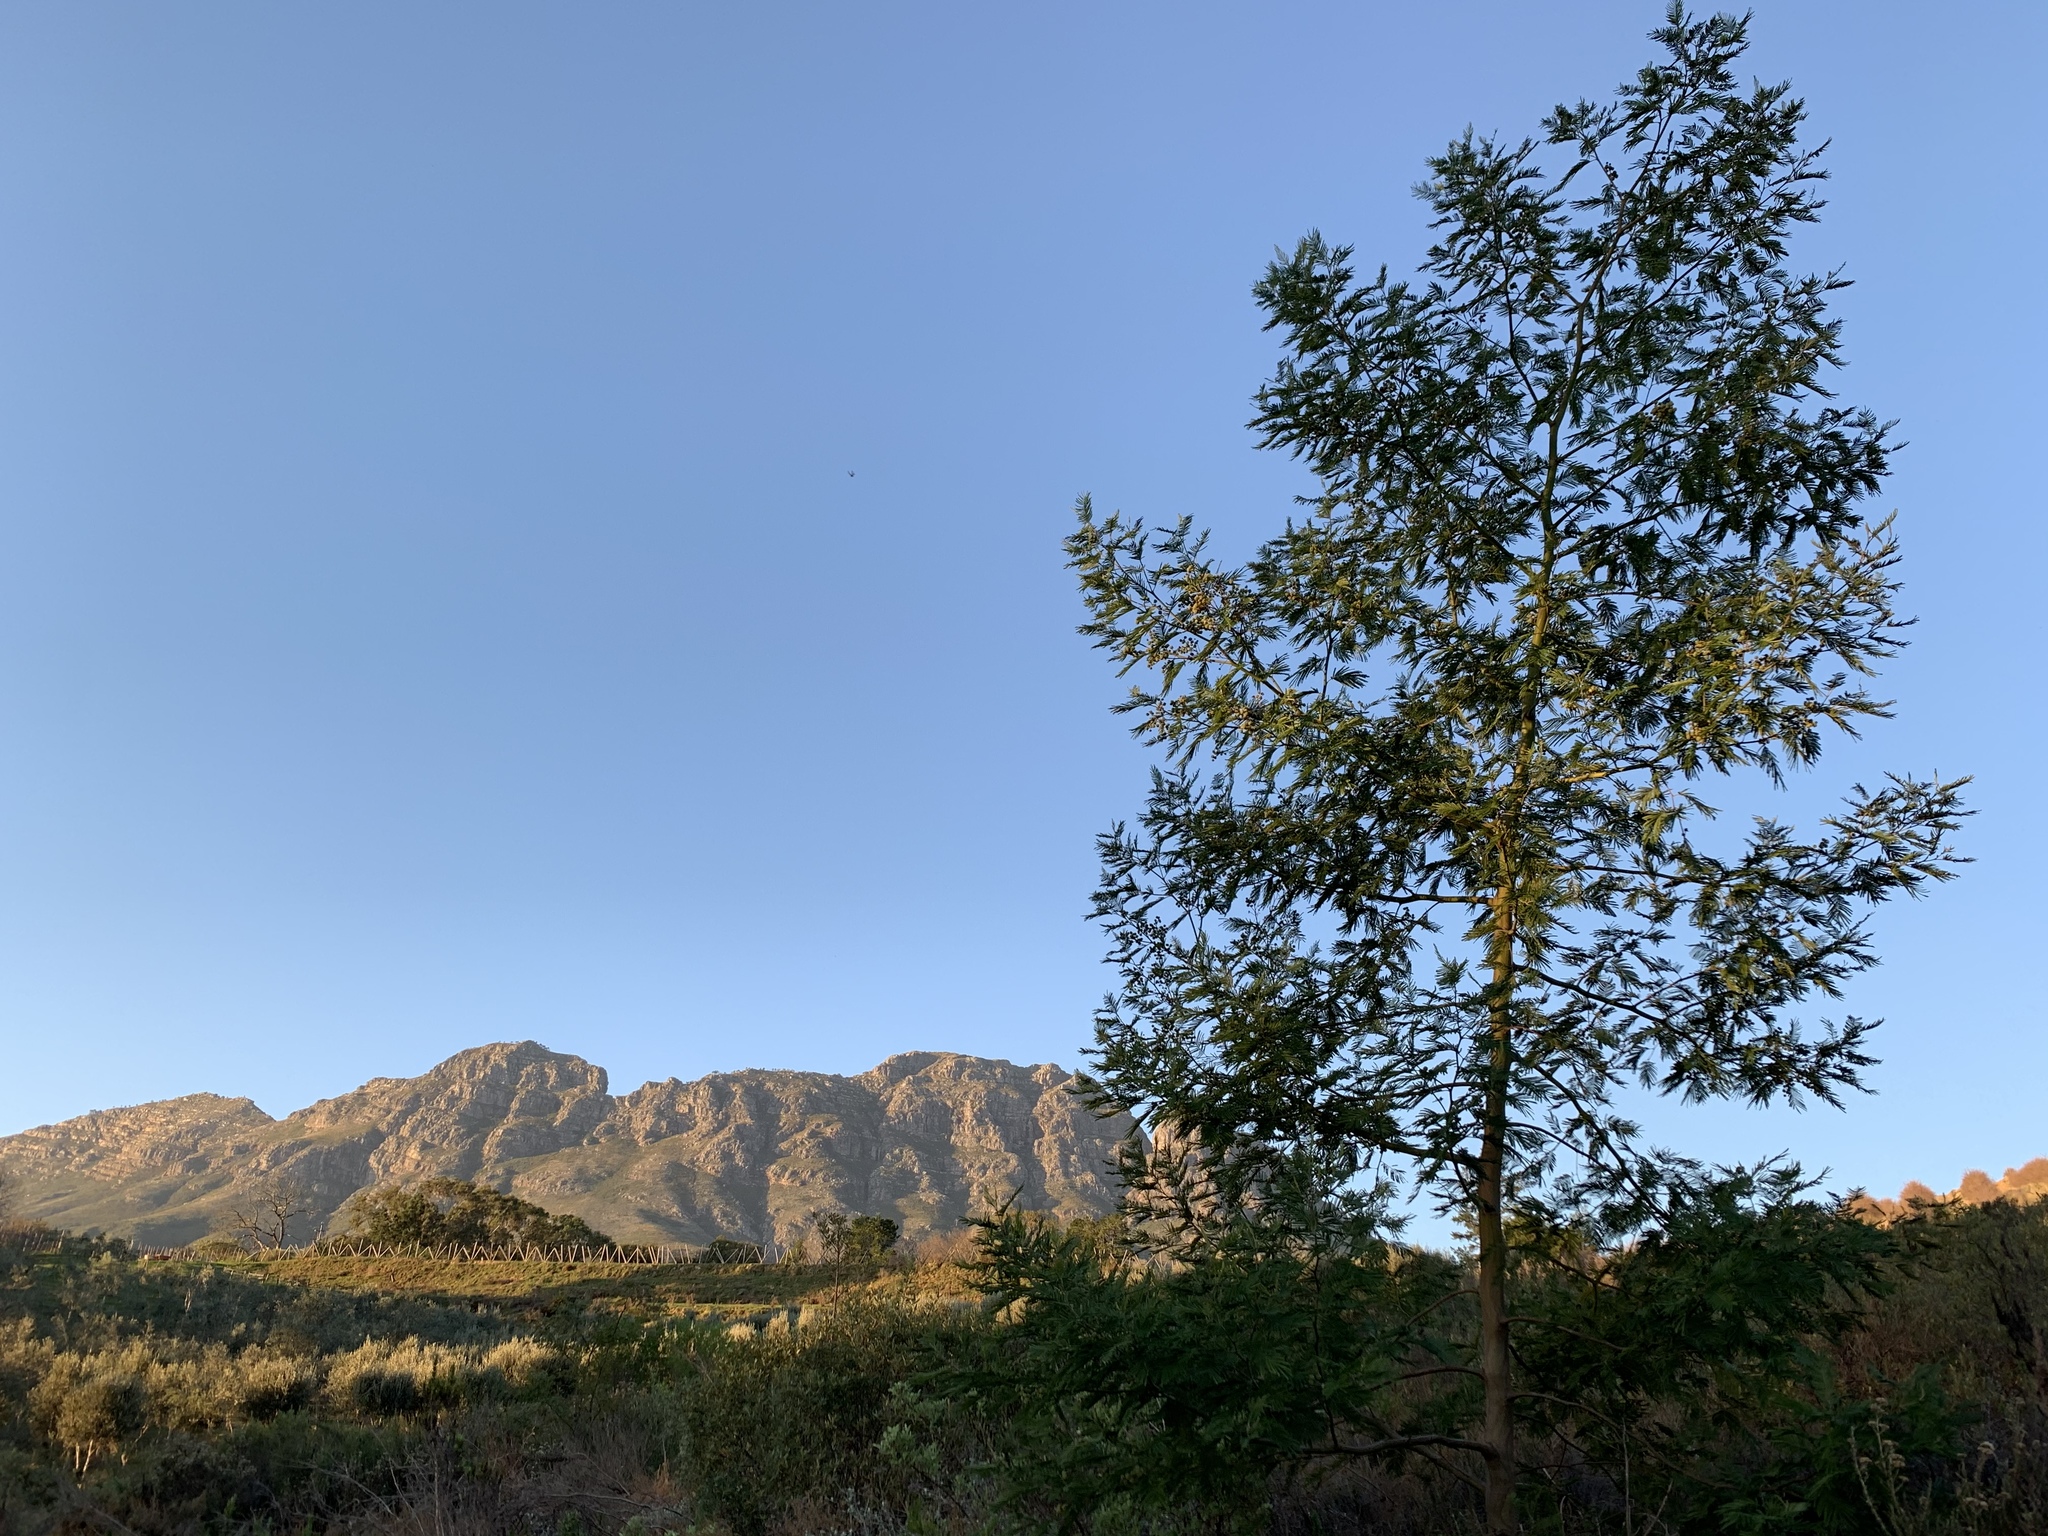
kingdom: Plantae
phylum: Tracheophyta
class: Magnoliopsida
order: Fabales
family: Fabaceae
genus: Acacia
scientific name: Acacia mearnsii
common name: Black wattle
